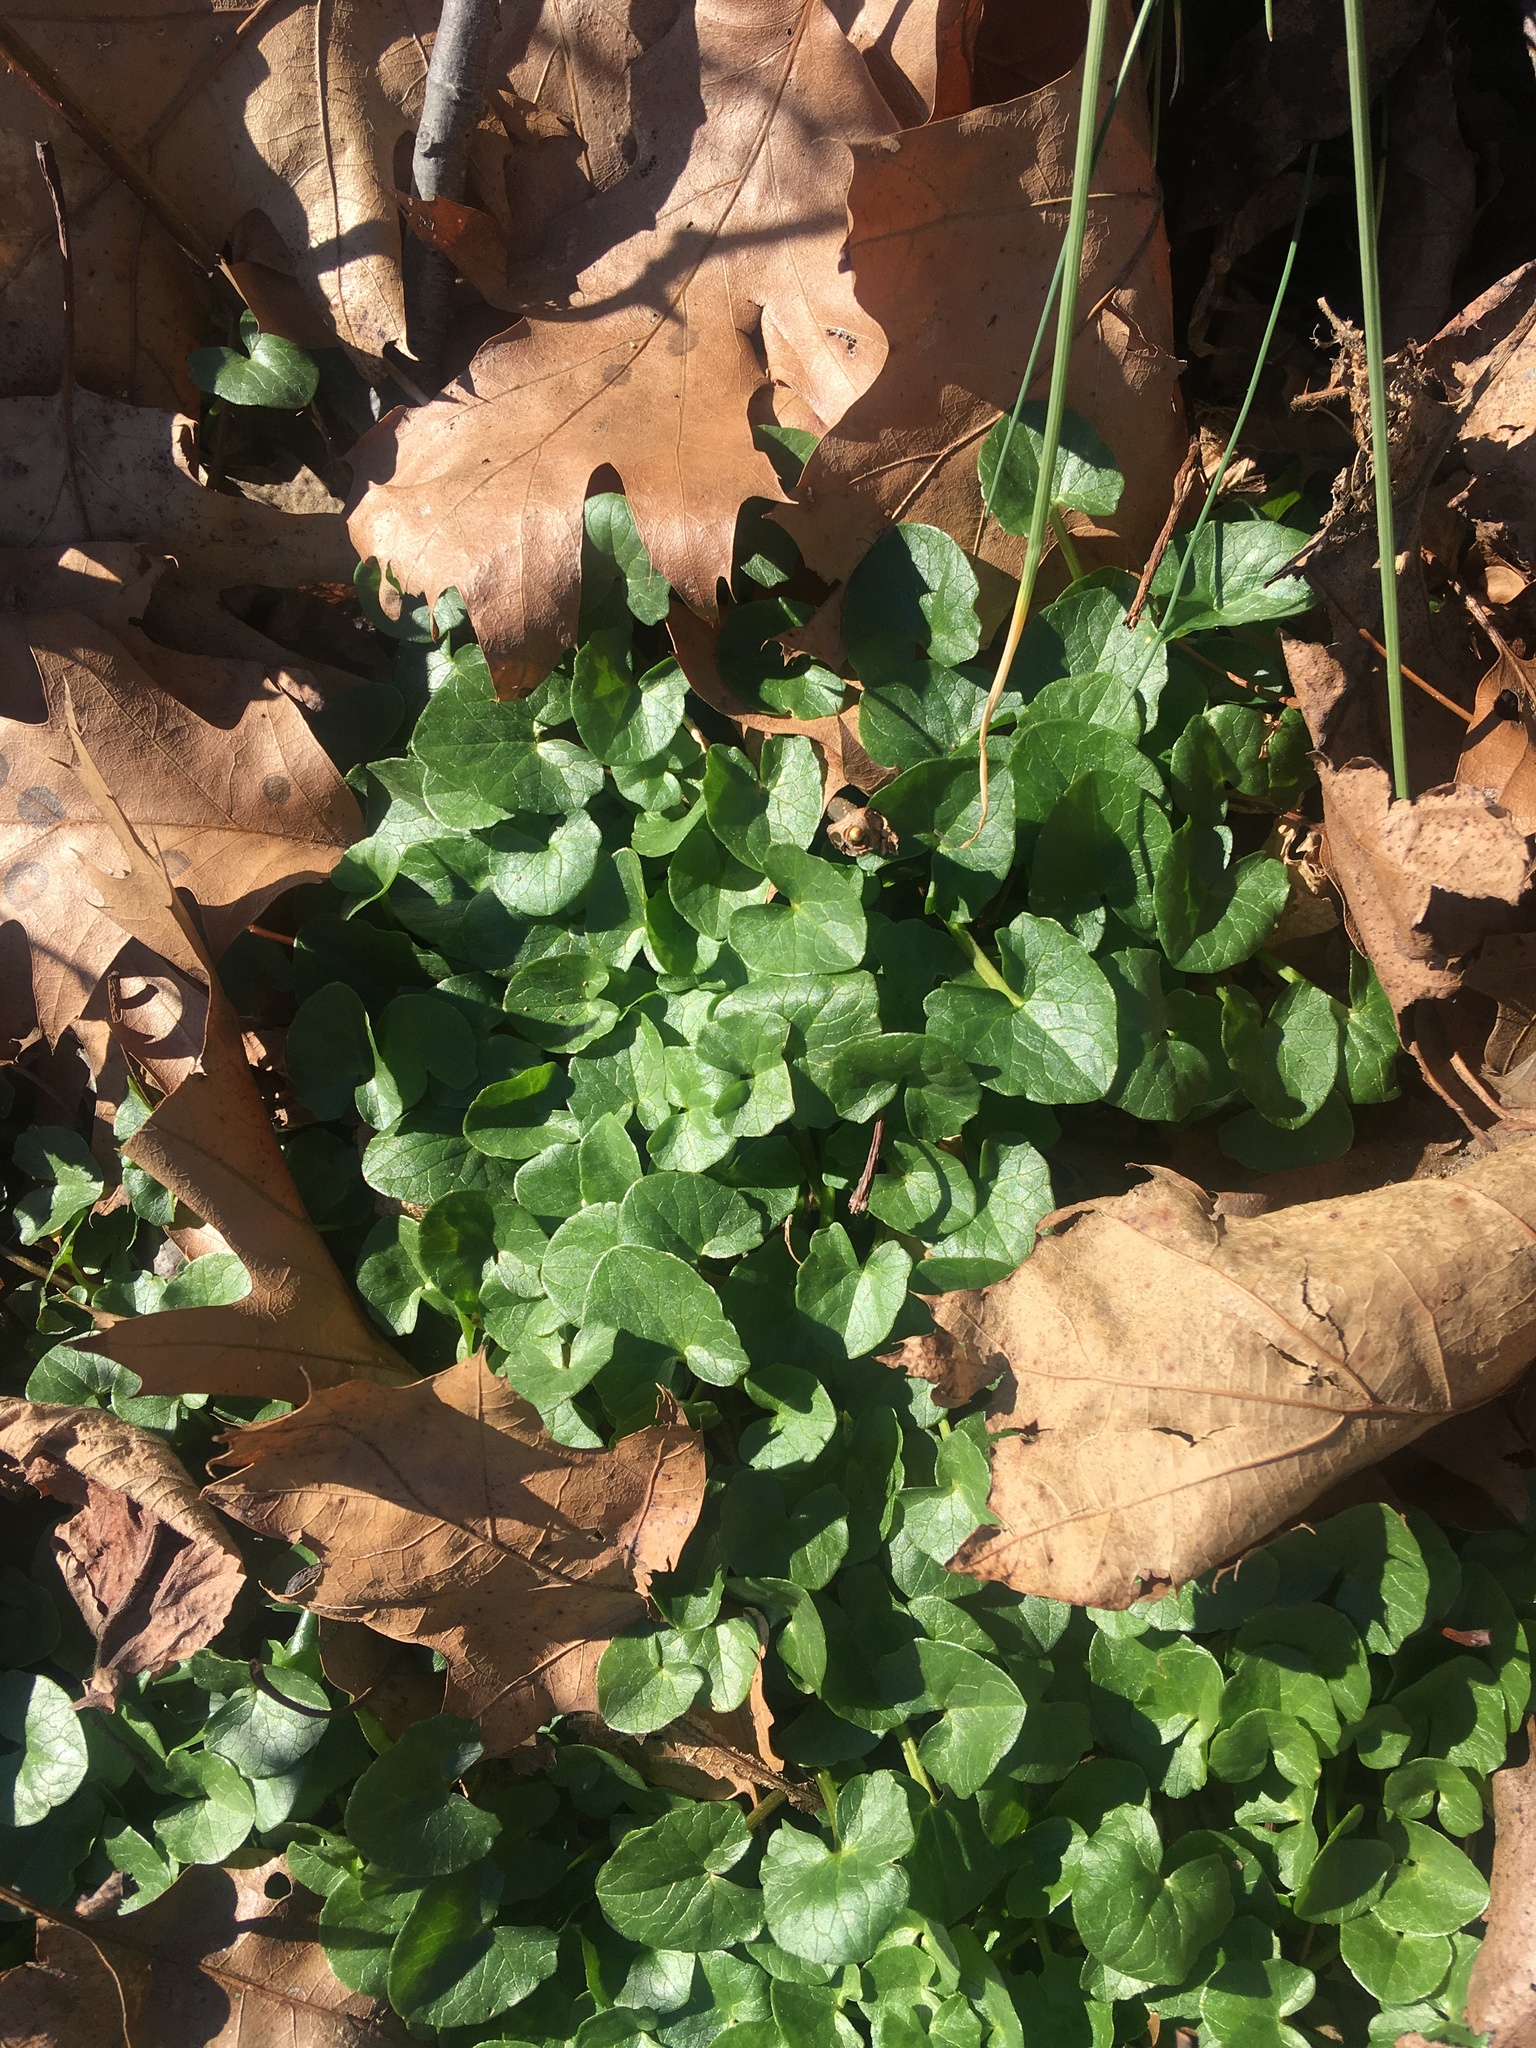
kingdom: Plantae
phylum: Tracheophyta
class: Magnoliopsida
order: Ranunculales
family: Ranunculaceae
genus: Ficaria
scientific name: Ficaria verna
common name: Lesser celandine
